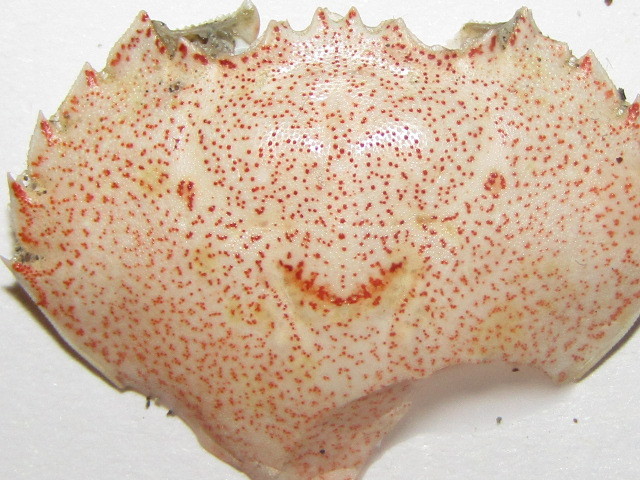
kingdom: Animalia
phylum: Arthropoda
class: Malacostraca
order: Decapoda
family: Ovalipidae
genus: Ovalipes
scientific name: Ovalipes catharus
